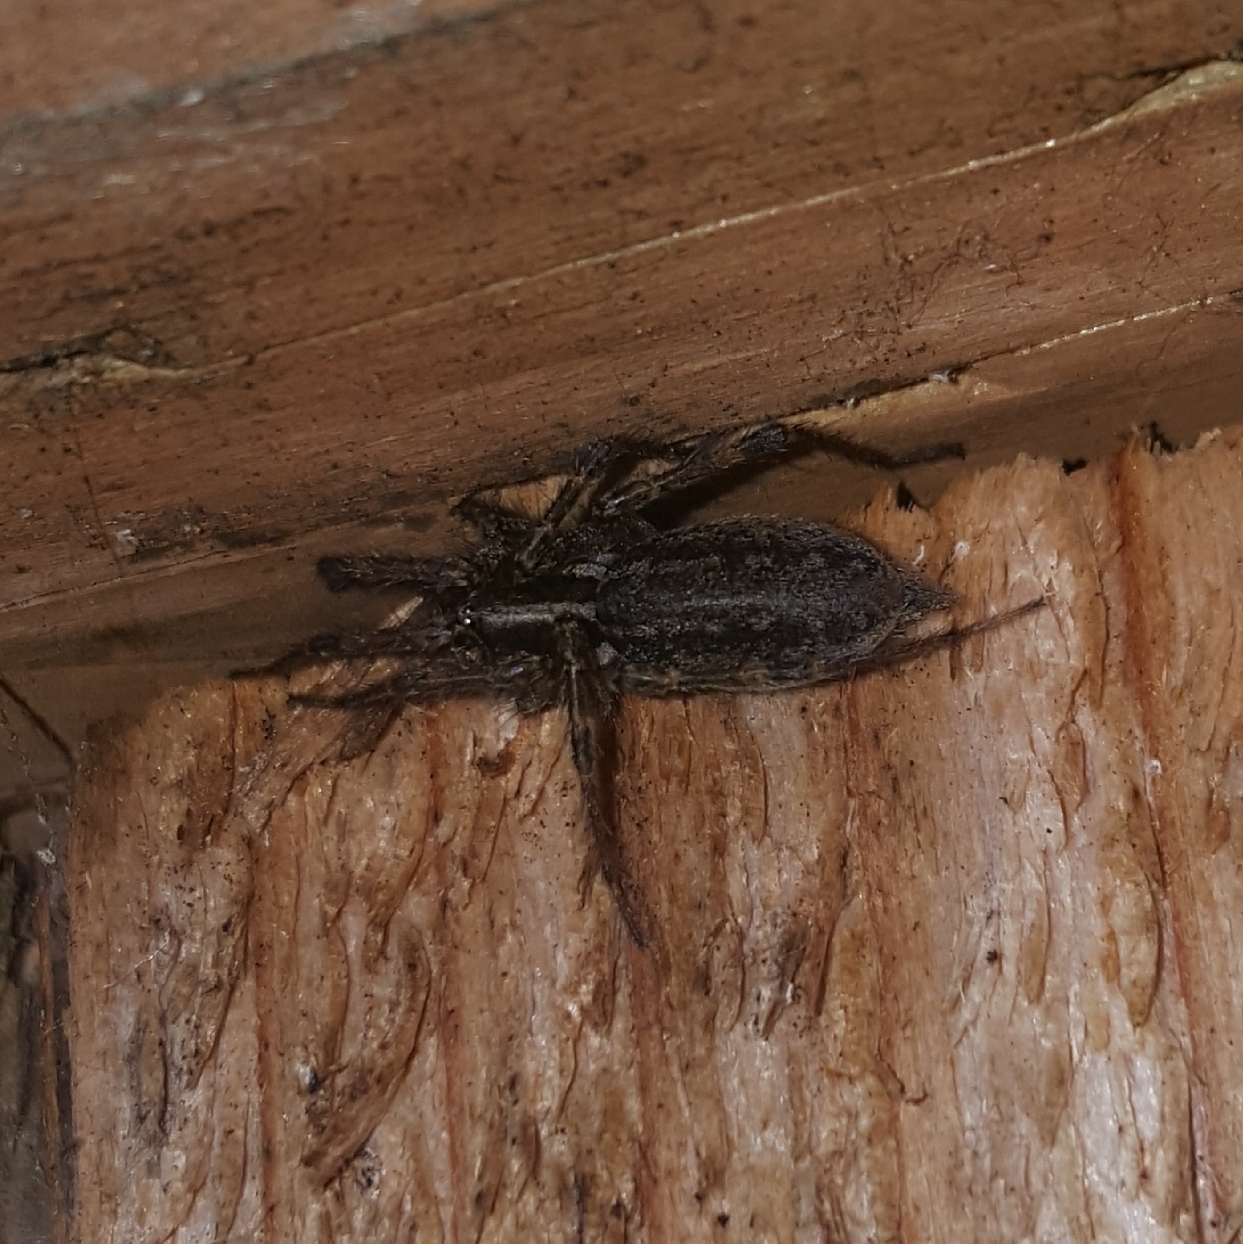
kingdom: Animalia
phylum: Arthropoda
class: Arachnida
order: Araneae
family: Agelenidae
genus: Agelenopsis
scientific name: Agelenopsis
